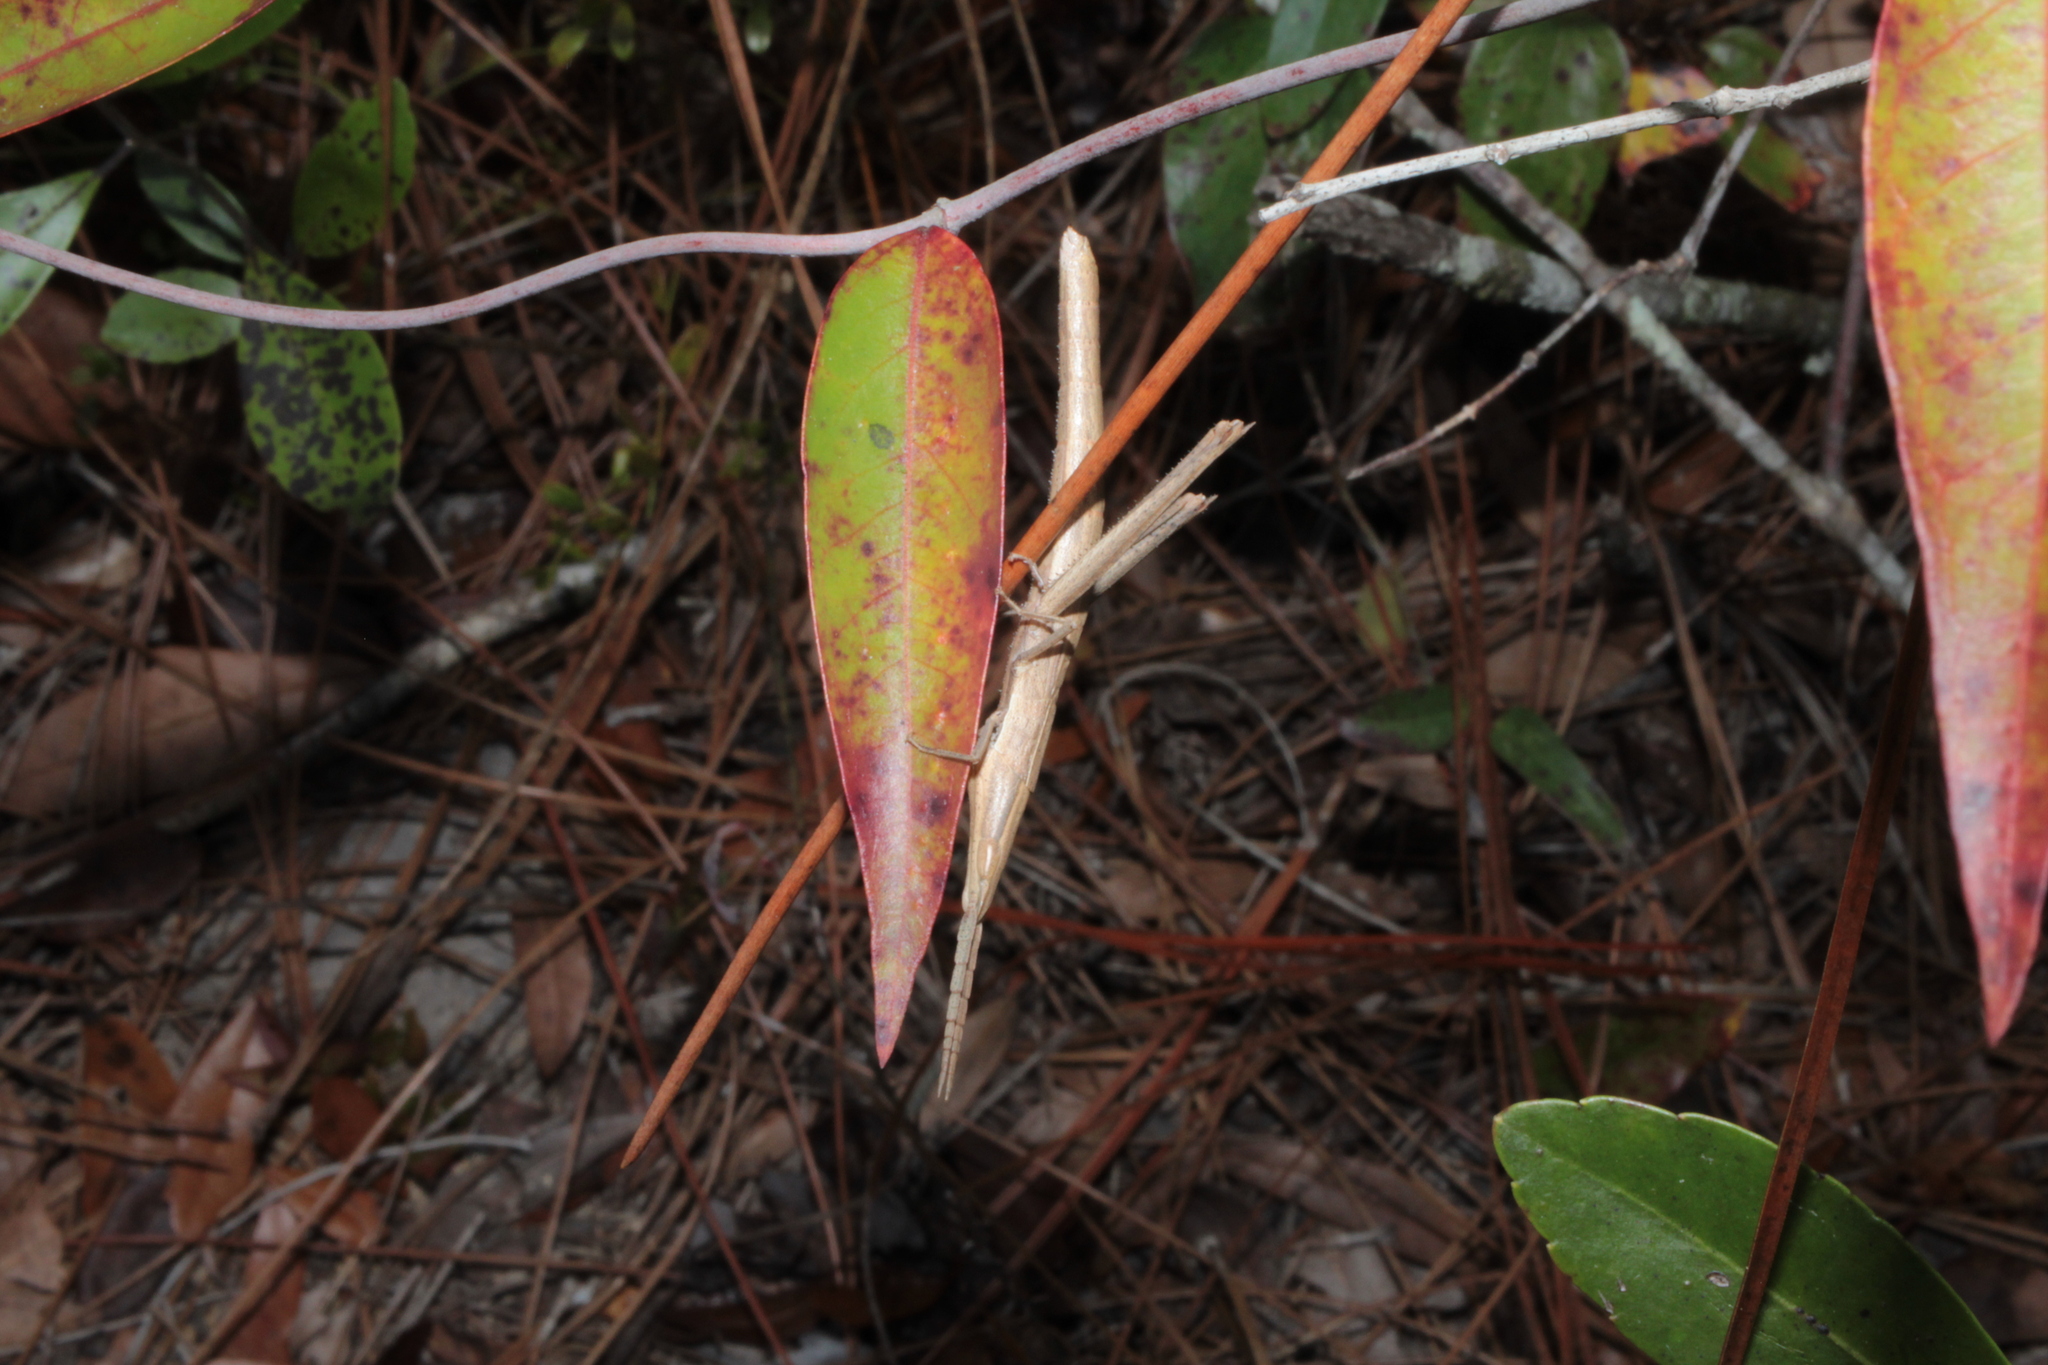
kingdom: Animalia
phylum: Arthropoda
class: Insecta
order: Orthoptera
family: Acrididae
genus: Achurum
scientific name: Achurum carinatum
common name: Long-headed toothpick grasshopper
